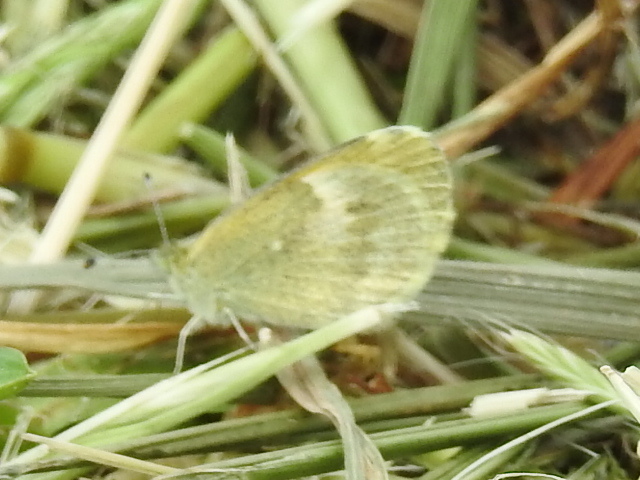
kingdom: Animalia
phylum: Arthropoda
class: Insecta
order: Lepidoptera
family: Pieridae
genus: Nathalis
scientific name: Nathalis iole
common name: Dainty sulphur
